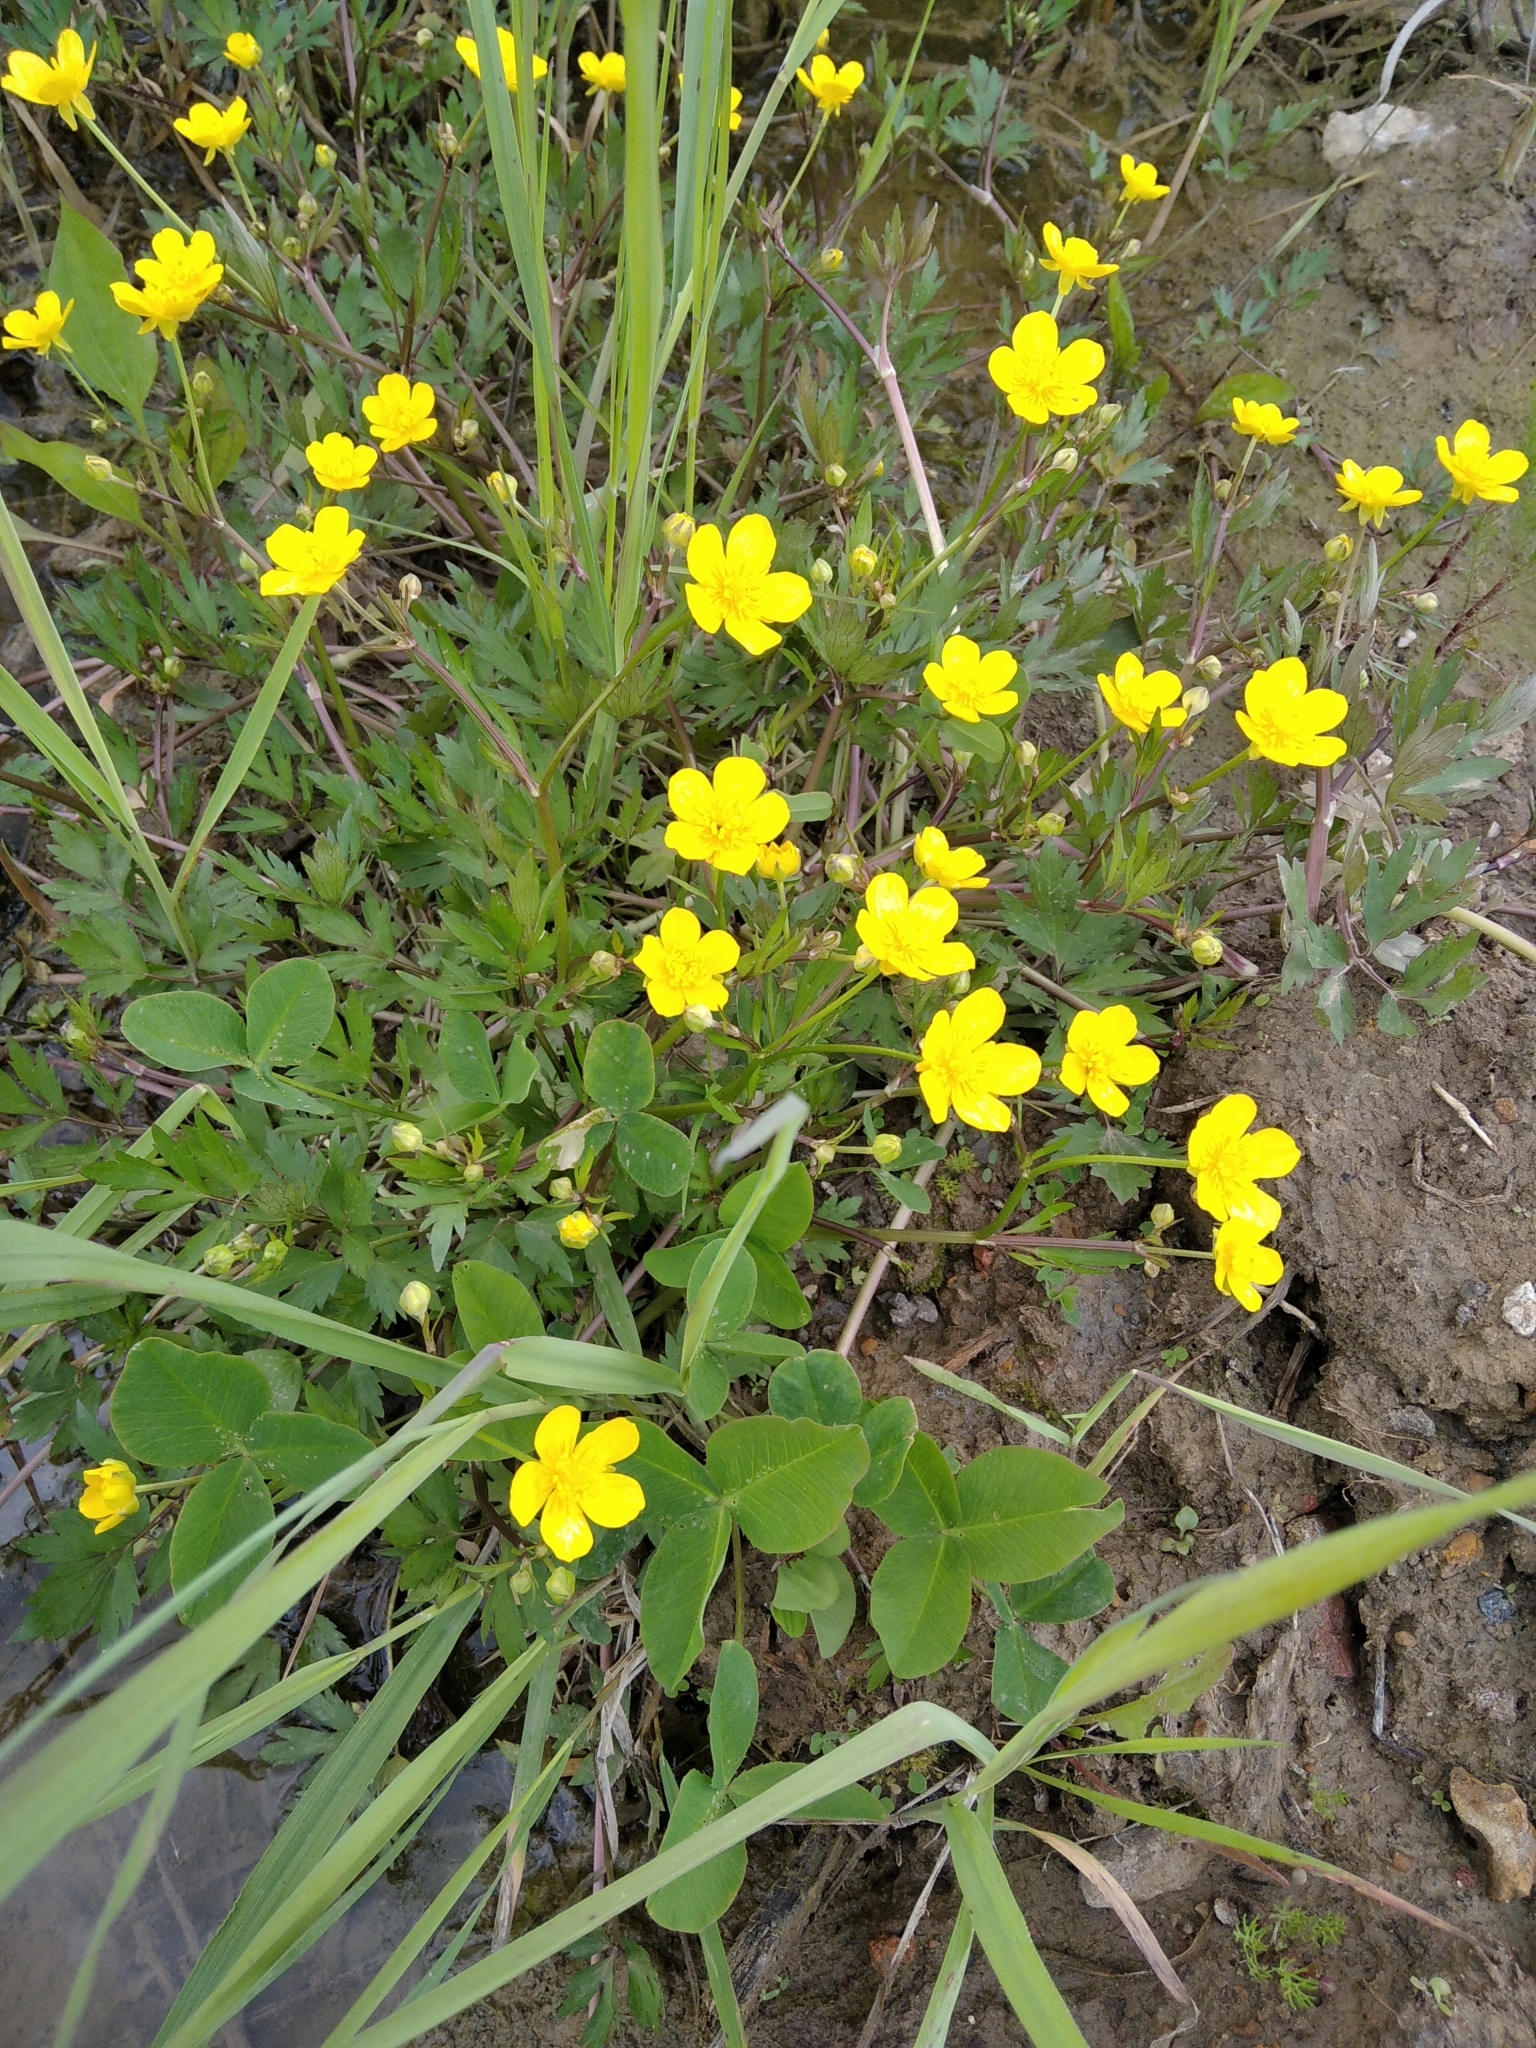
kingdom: Plantae
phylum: Tracheophyta
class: Magnoliopsida
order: Ranunculales
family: Ranunculaceae
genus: Ranunculus
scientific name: Ranunculus repens
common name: Creeping buttercup
